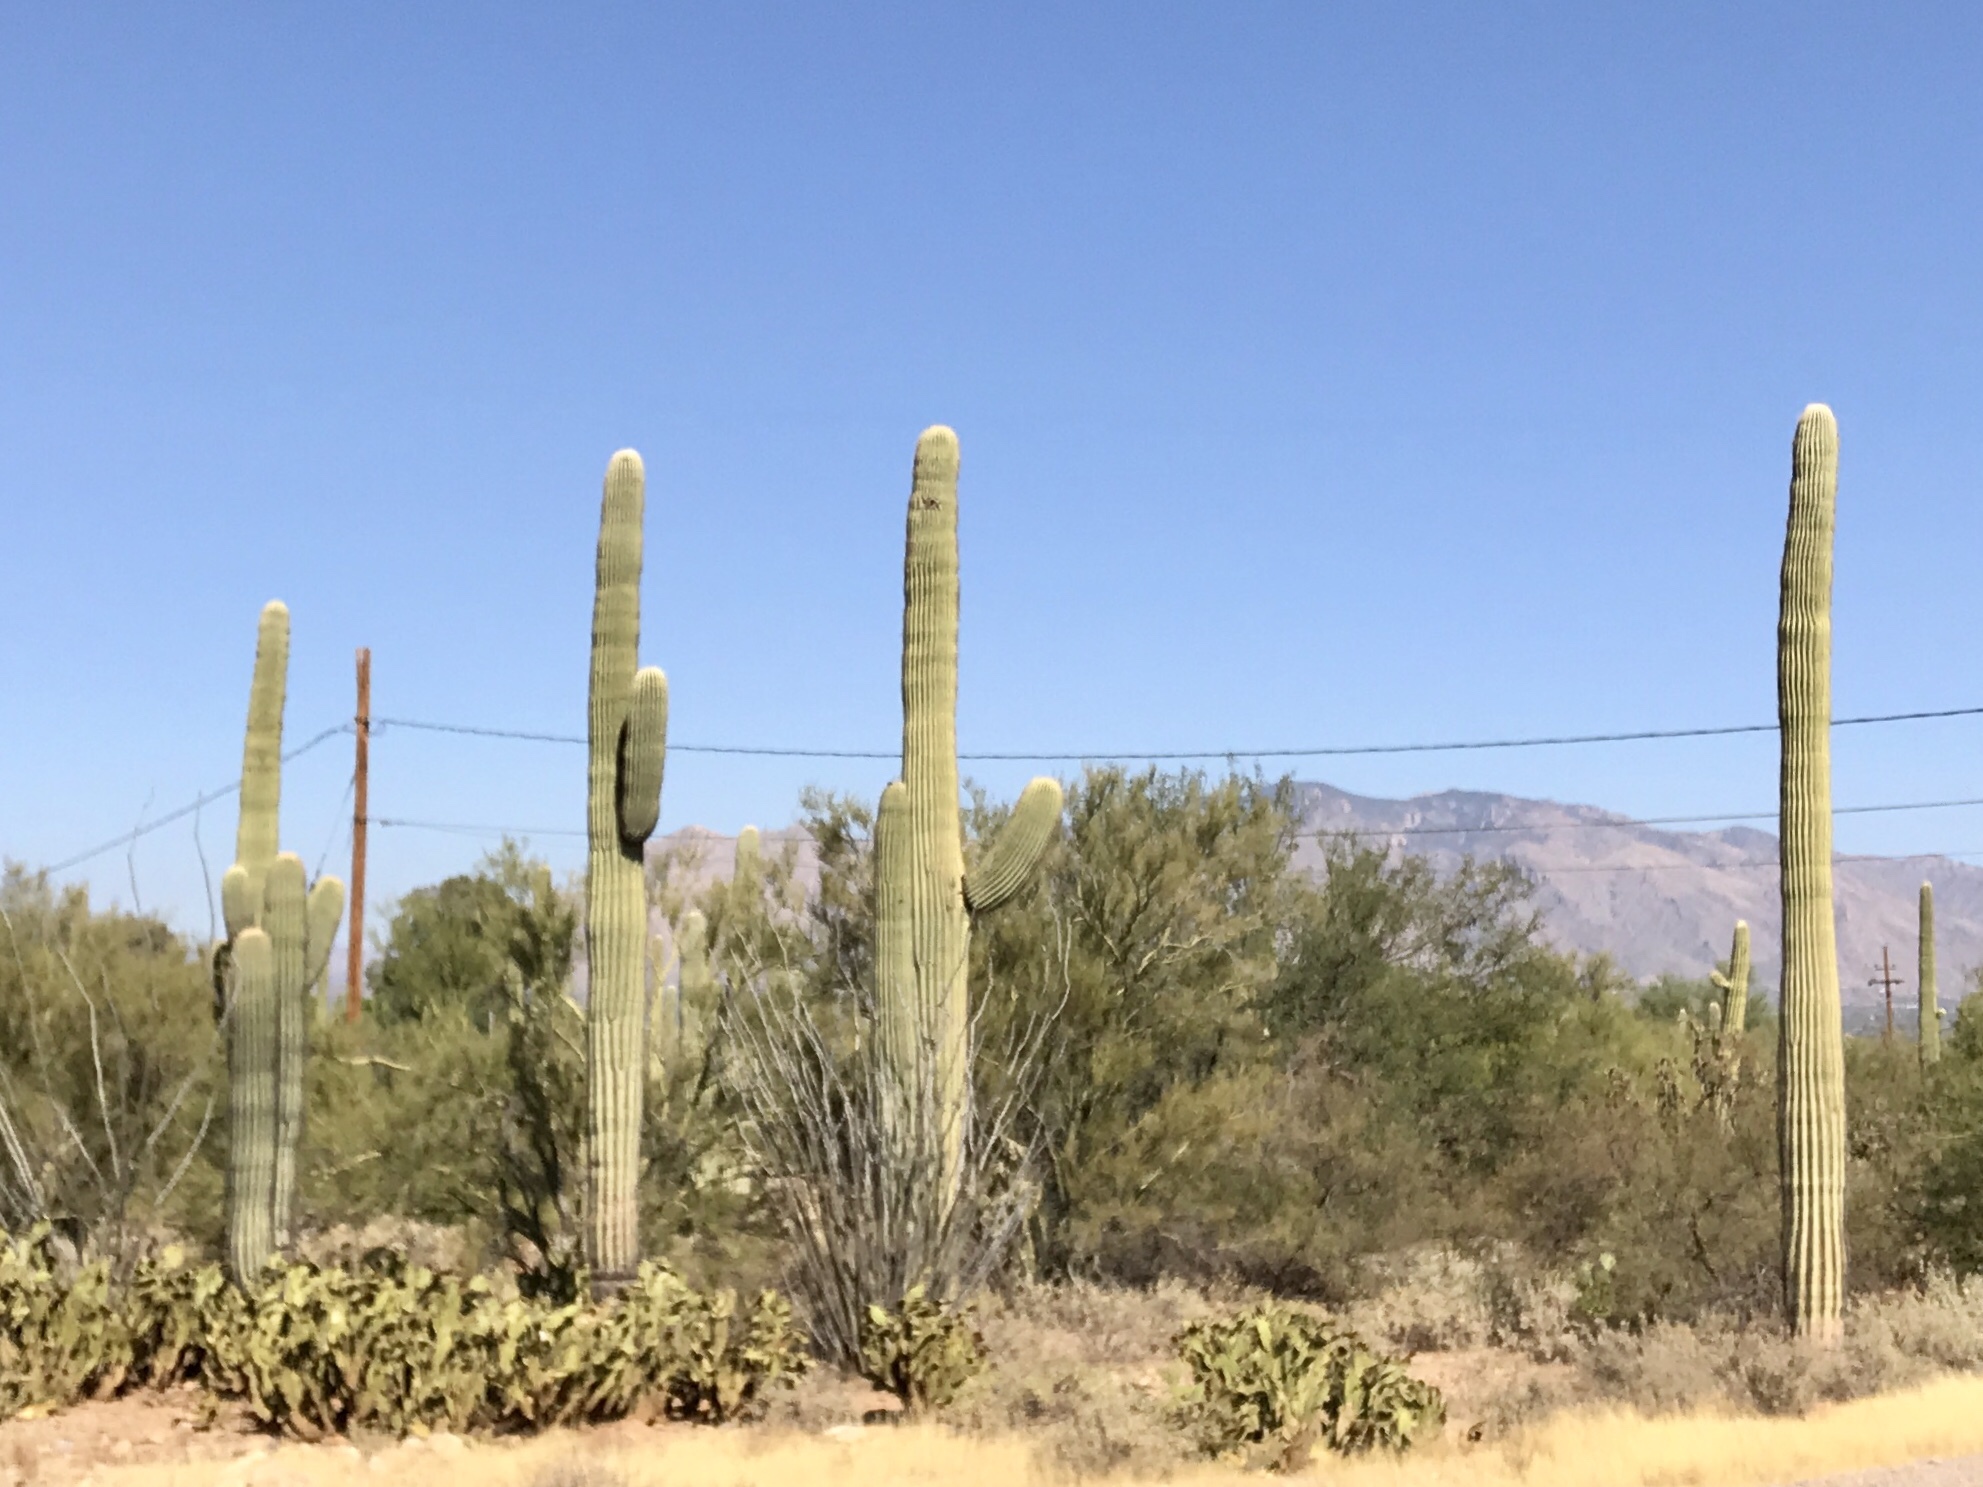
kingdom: Plantae
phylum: Tracheophyta
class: Magnoliopsida
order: Caryophyllales
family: Cactaceae
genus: Carnegiea
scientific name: Carnegiea gigantea
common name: Saguaro
